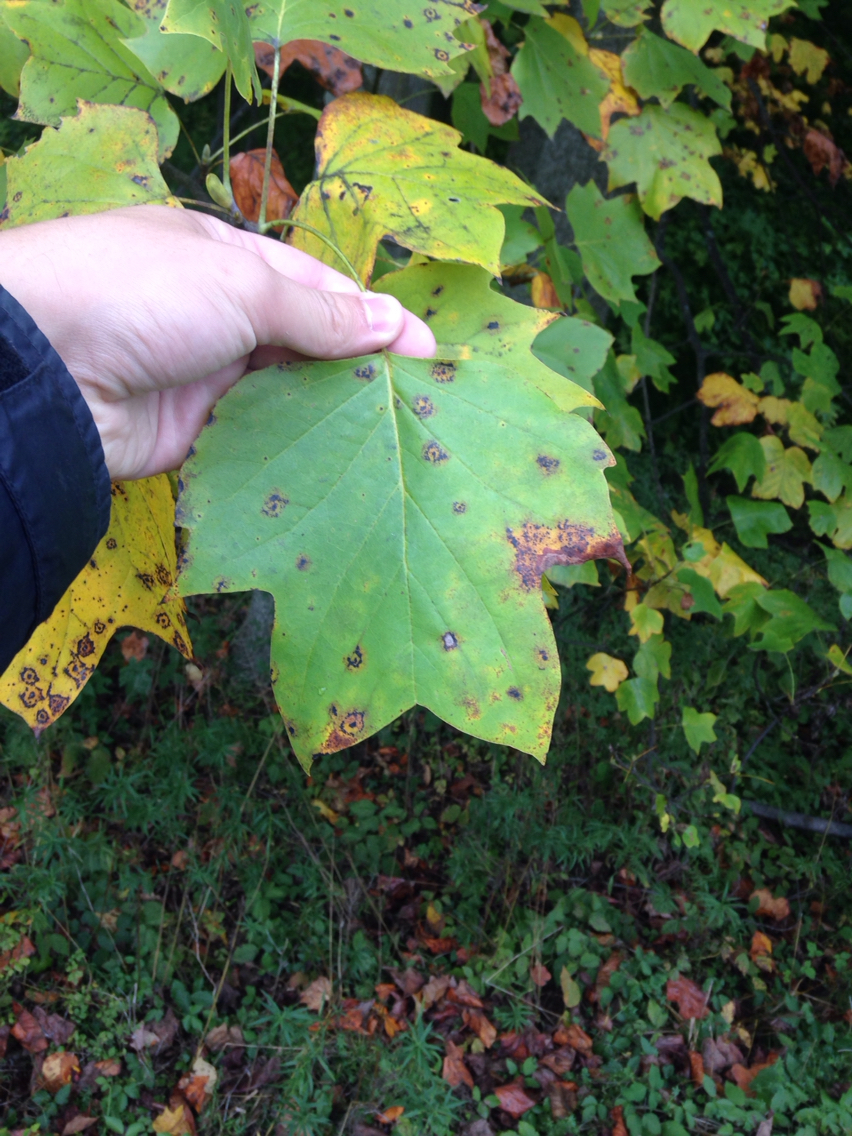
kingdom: Plantae
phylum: Tracheophyta
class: Magnoliopsida
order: Magnoliales
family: Magnoliaceae
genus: Liriodendron
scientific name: Liriodendron tulipifera
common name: Tulip tree
